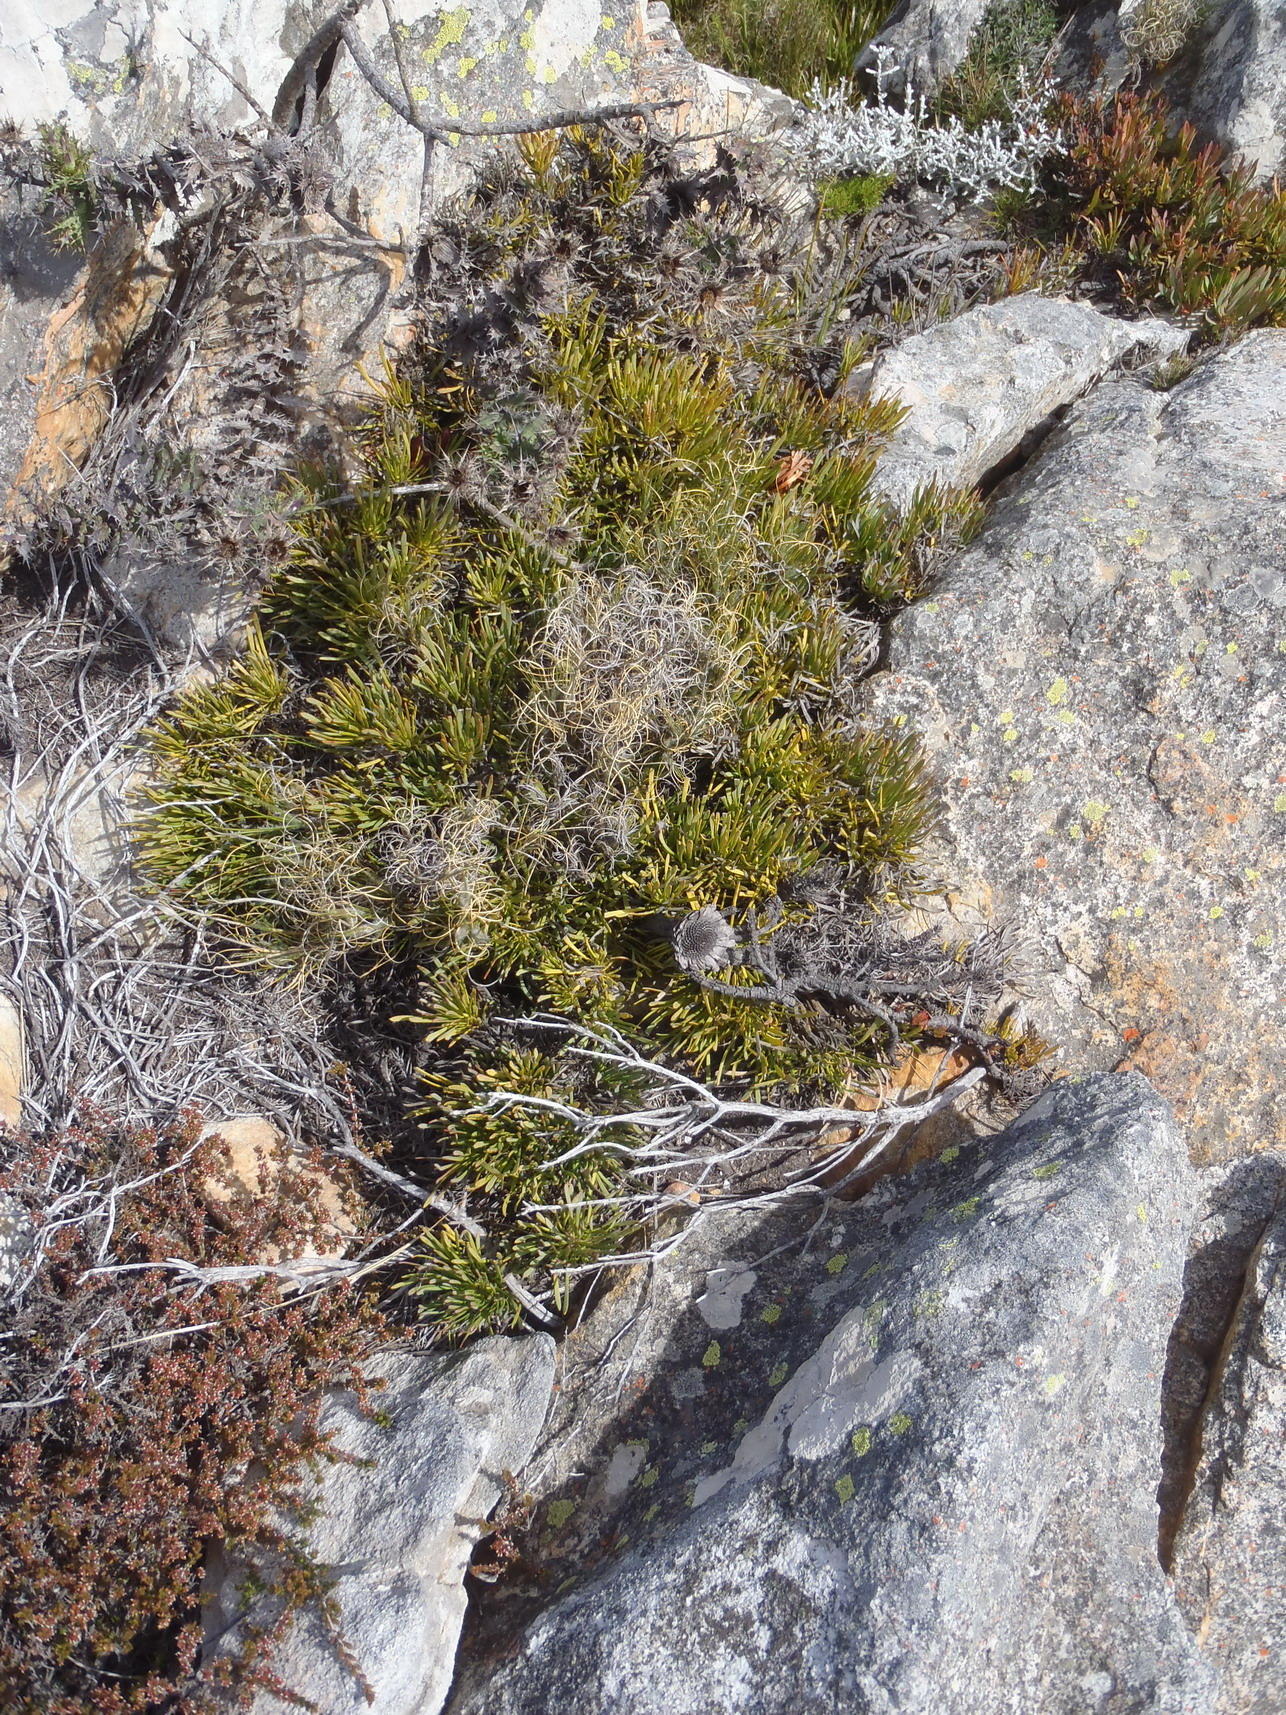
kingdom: Plantae
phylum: Tracheophyta
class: Magnoliopsida
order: Proteales
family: Proteaceae
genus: Protea
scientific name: Protea montana
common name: Swartberg sugarbush
